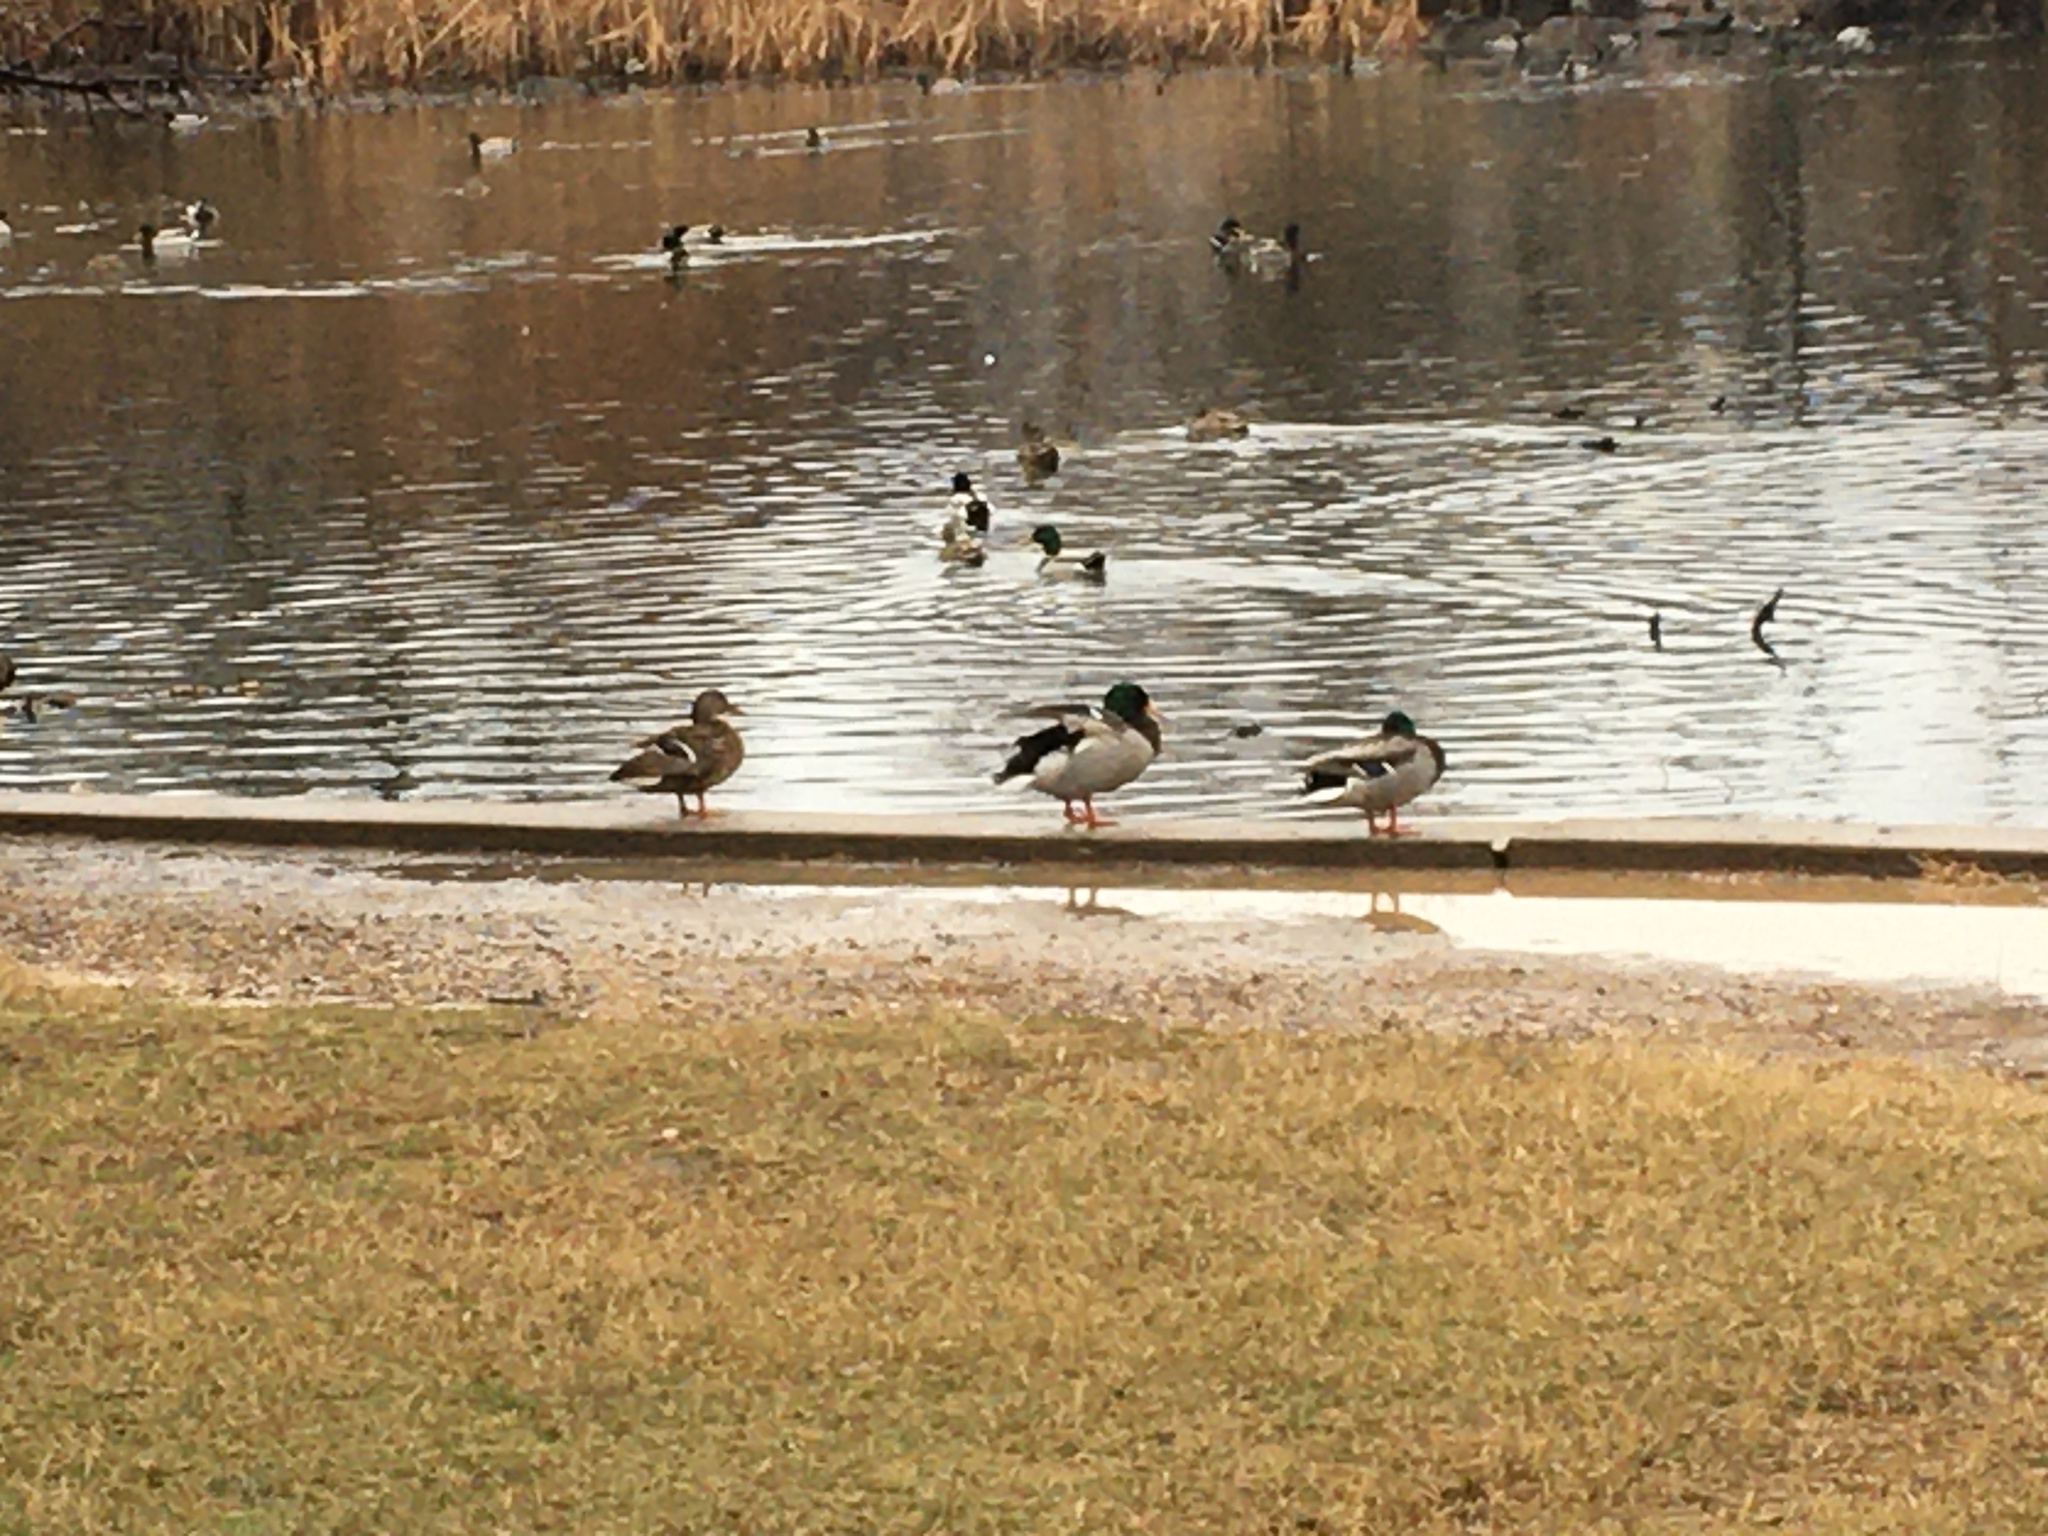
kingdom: Animalia
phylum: Chordata
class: Aves
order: Anseriformes
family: Anatidae
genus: Anas
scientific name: Anas platyrhynchos
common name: Mallard
